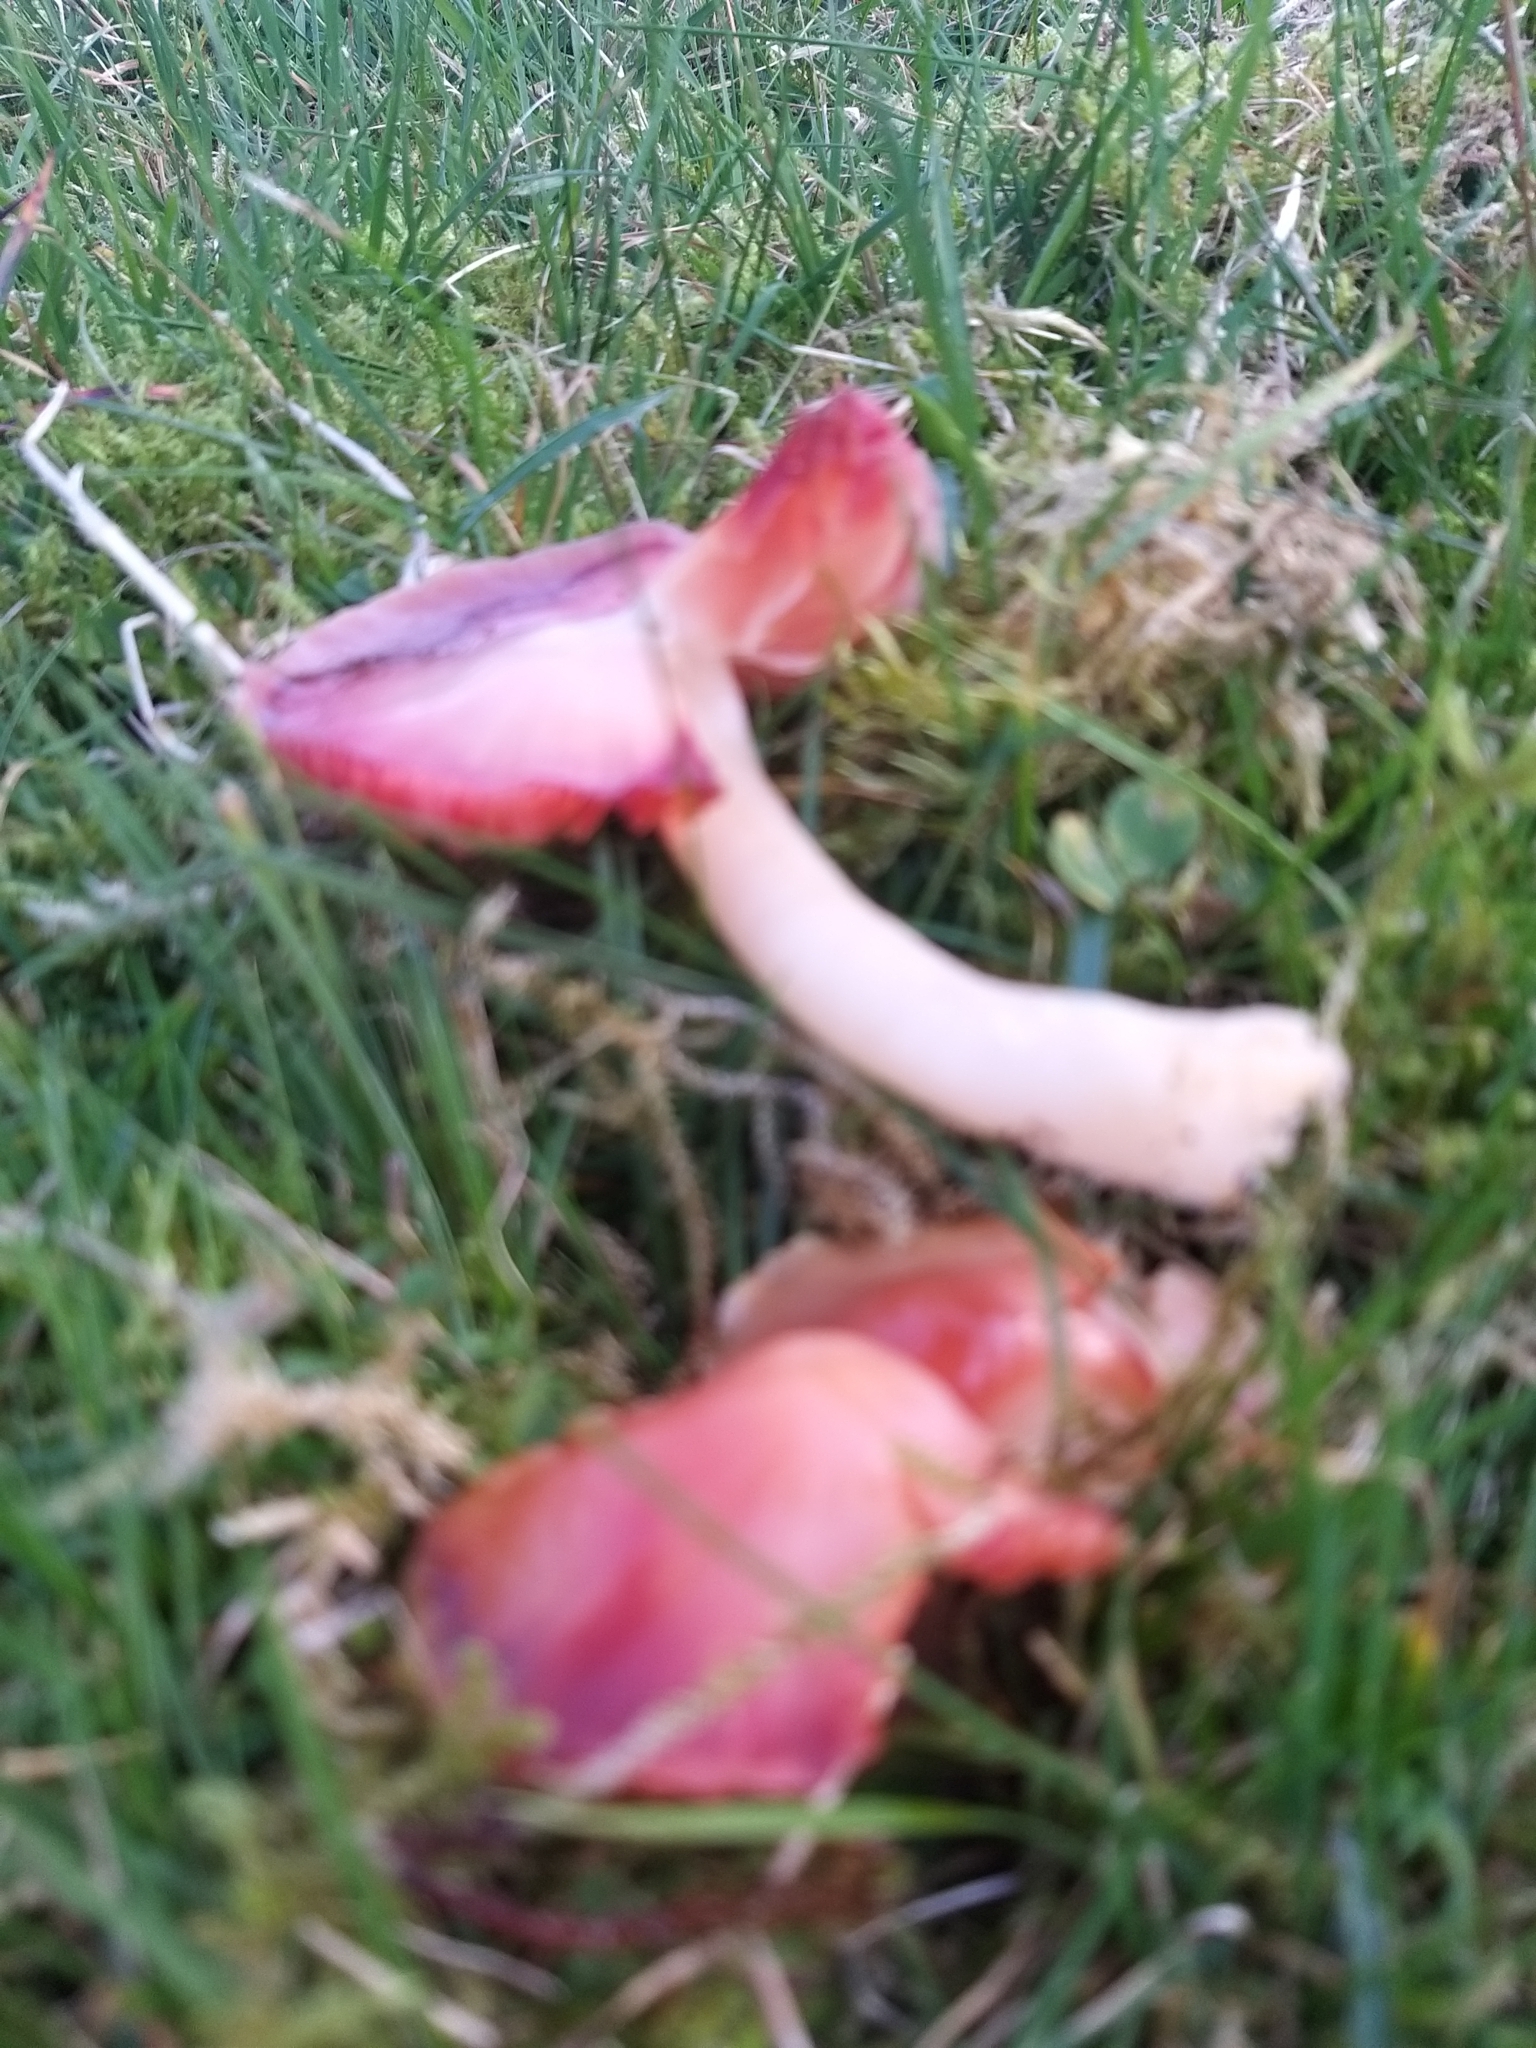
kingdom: Fungi
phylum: Basidiomycota
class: Agaricomycetes
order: Agaricales
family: Hygrophoraceae
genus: Gliophorus
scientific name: Gliophorus reginae
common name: Jubilee waxcap
